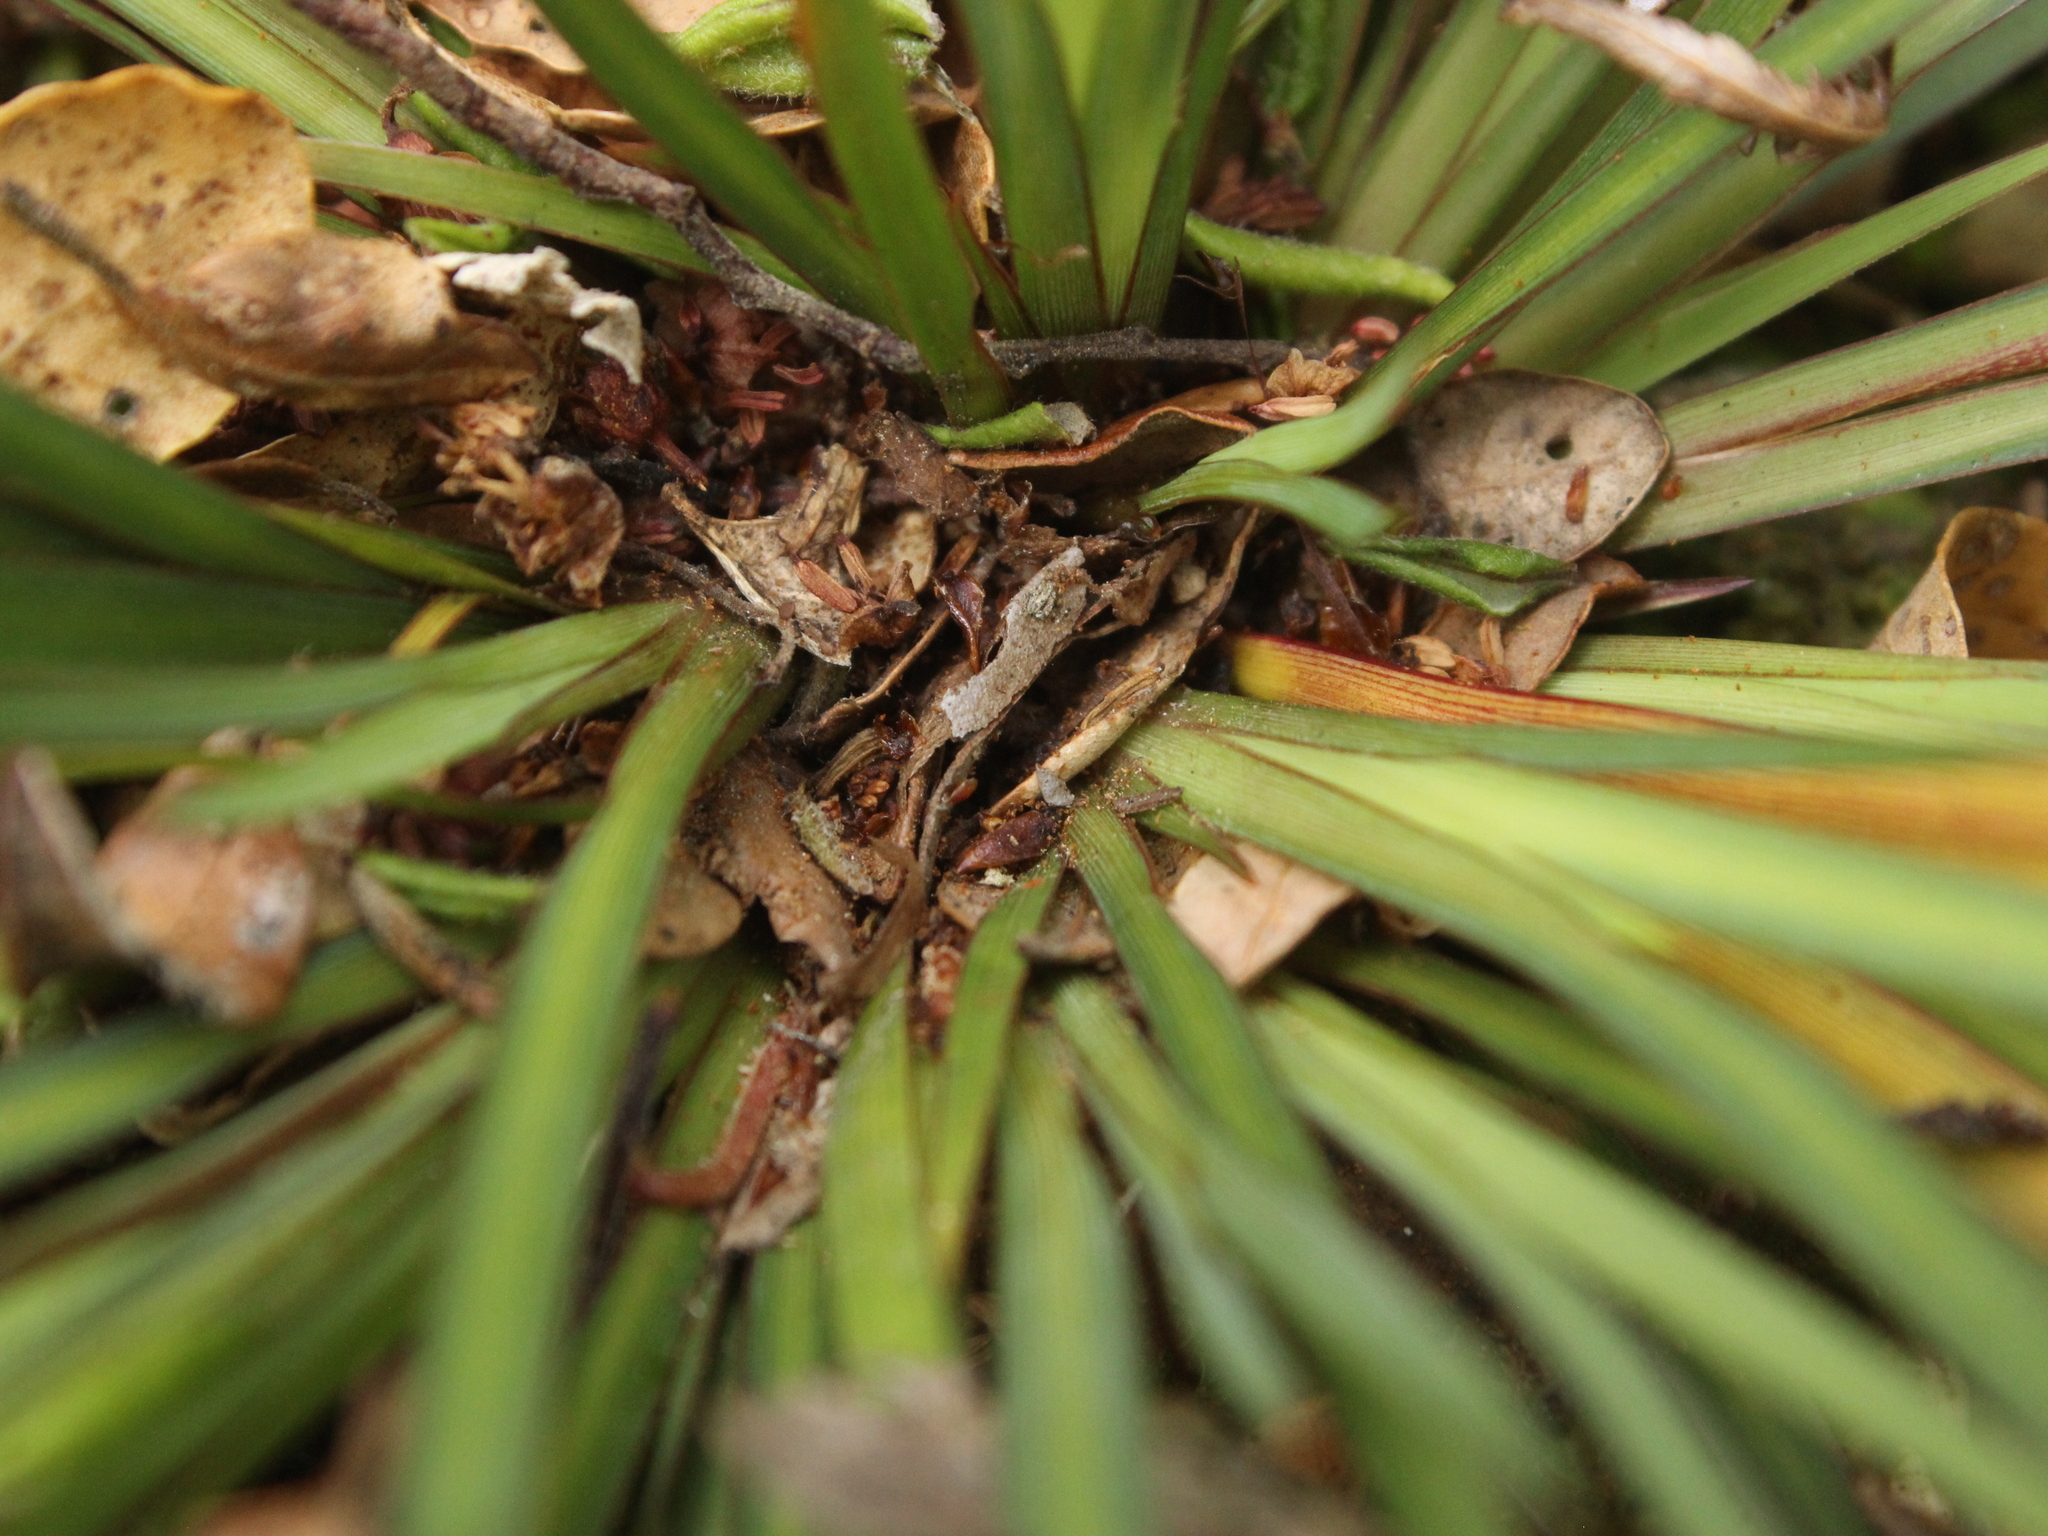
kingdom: Plantae
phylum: Tracheophyta
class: Liliopsida
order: Asparagales
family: Iridaceae
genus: Libertia
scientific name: Libertia edgariae
